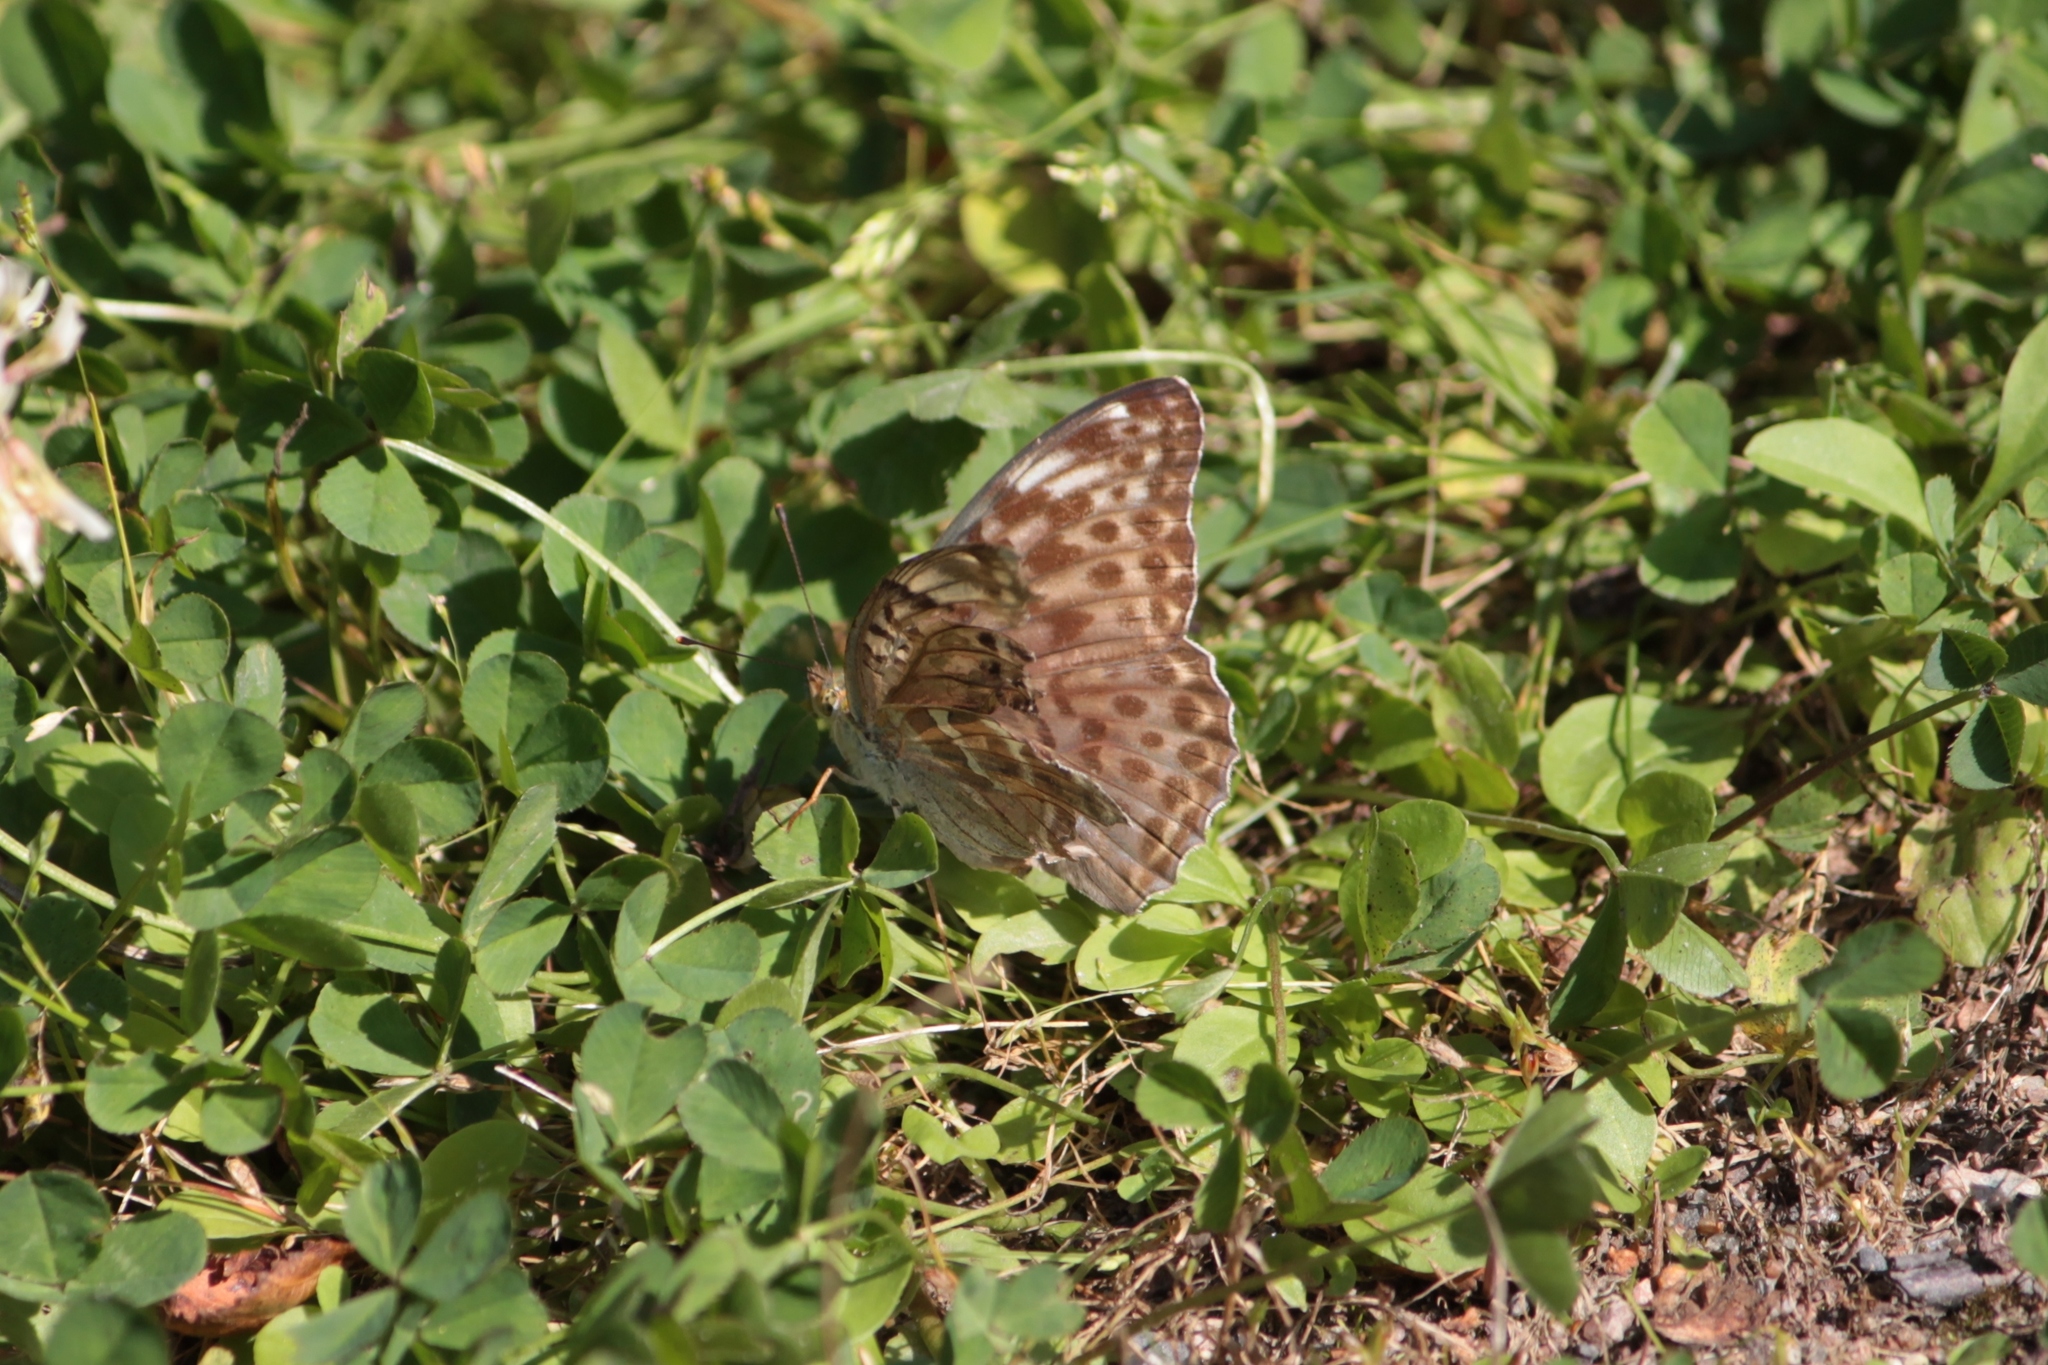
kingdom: Animalia
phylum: Arthropoda
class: Insecta
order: Lepidoptera
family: Nymphalidae
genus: Argynnis
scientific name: Argynnis paphia
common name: Silver-washed fritillary
